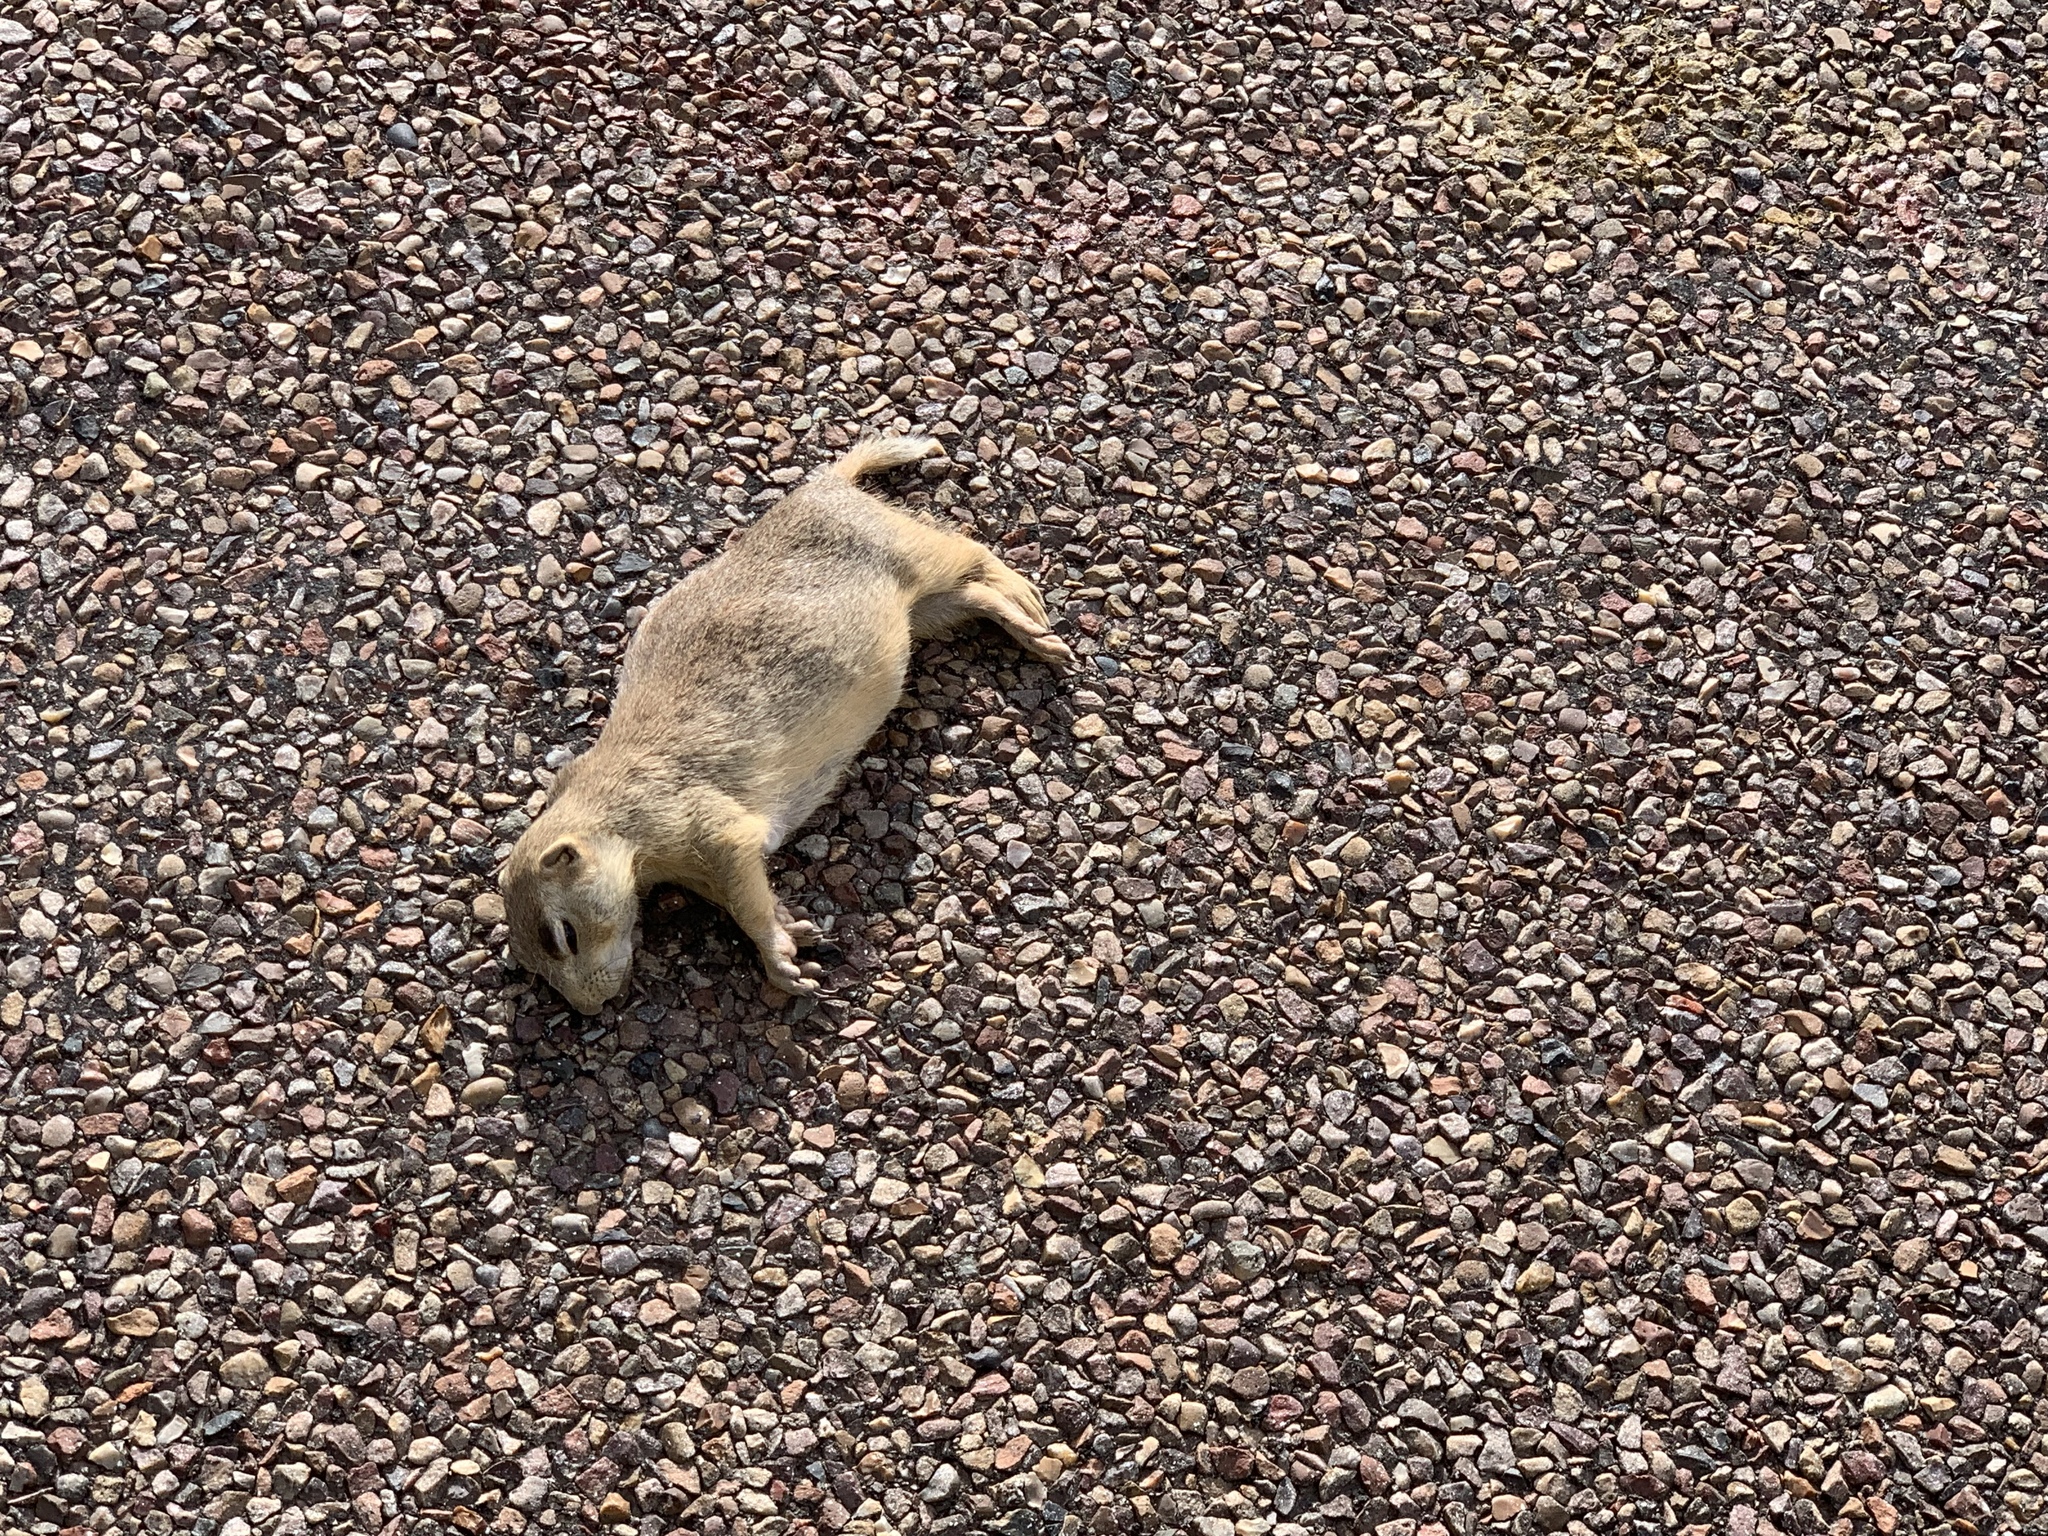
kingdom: Animalia
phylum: Chordata
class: Mammalia
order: Rodentia
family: Sciuridae
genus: Cynomys
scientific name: Cynomys gunnisoni
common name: Gunnison's prairie dog
